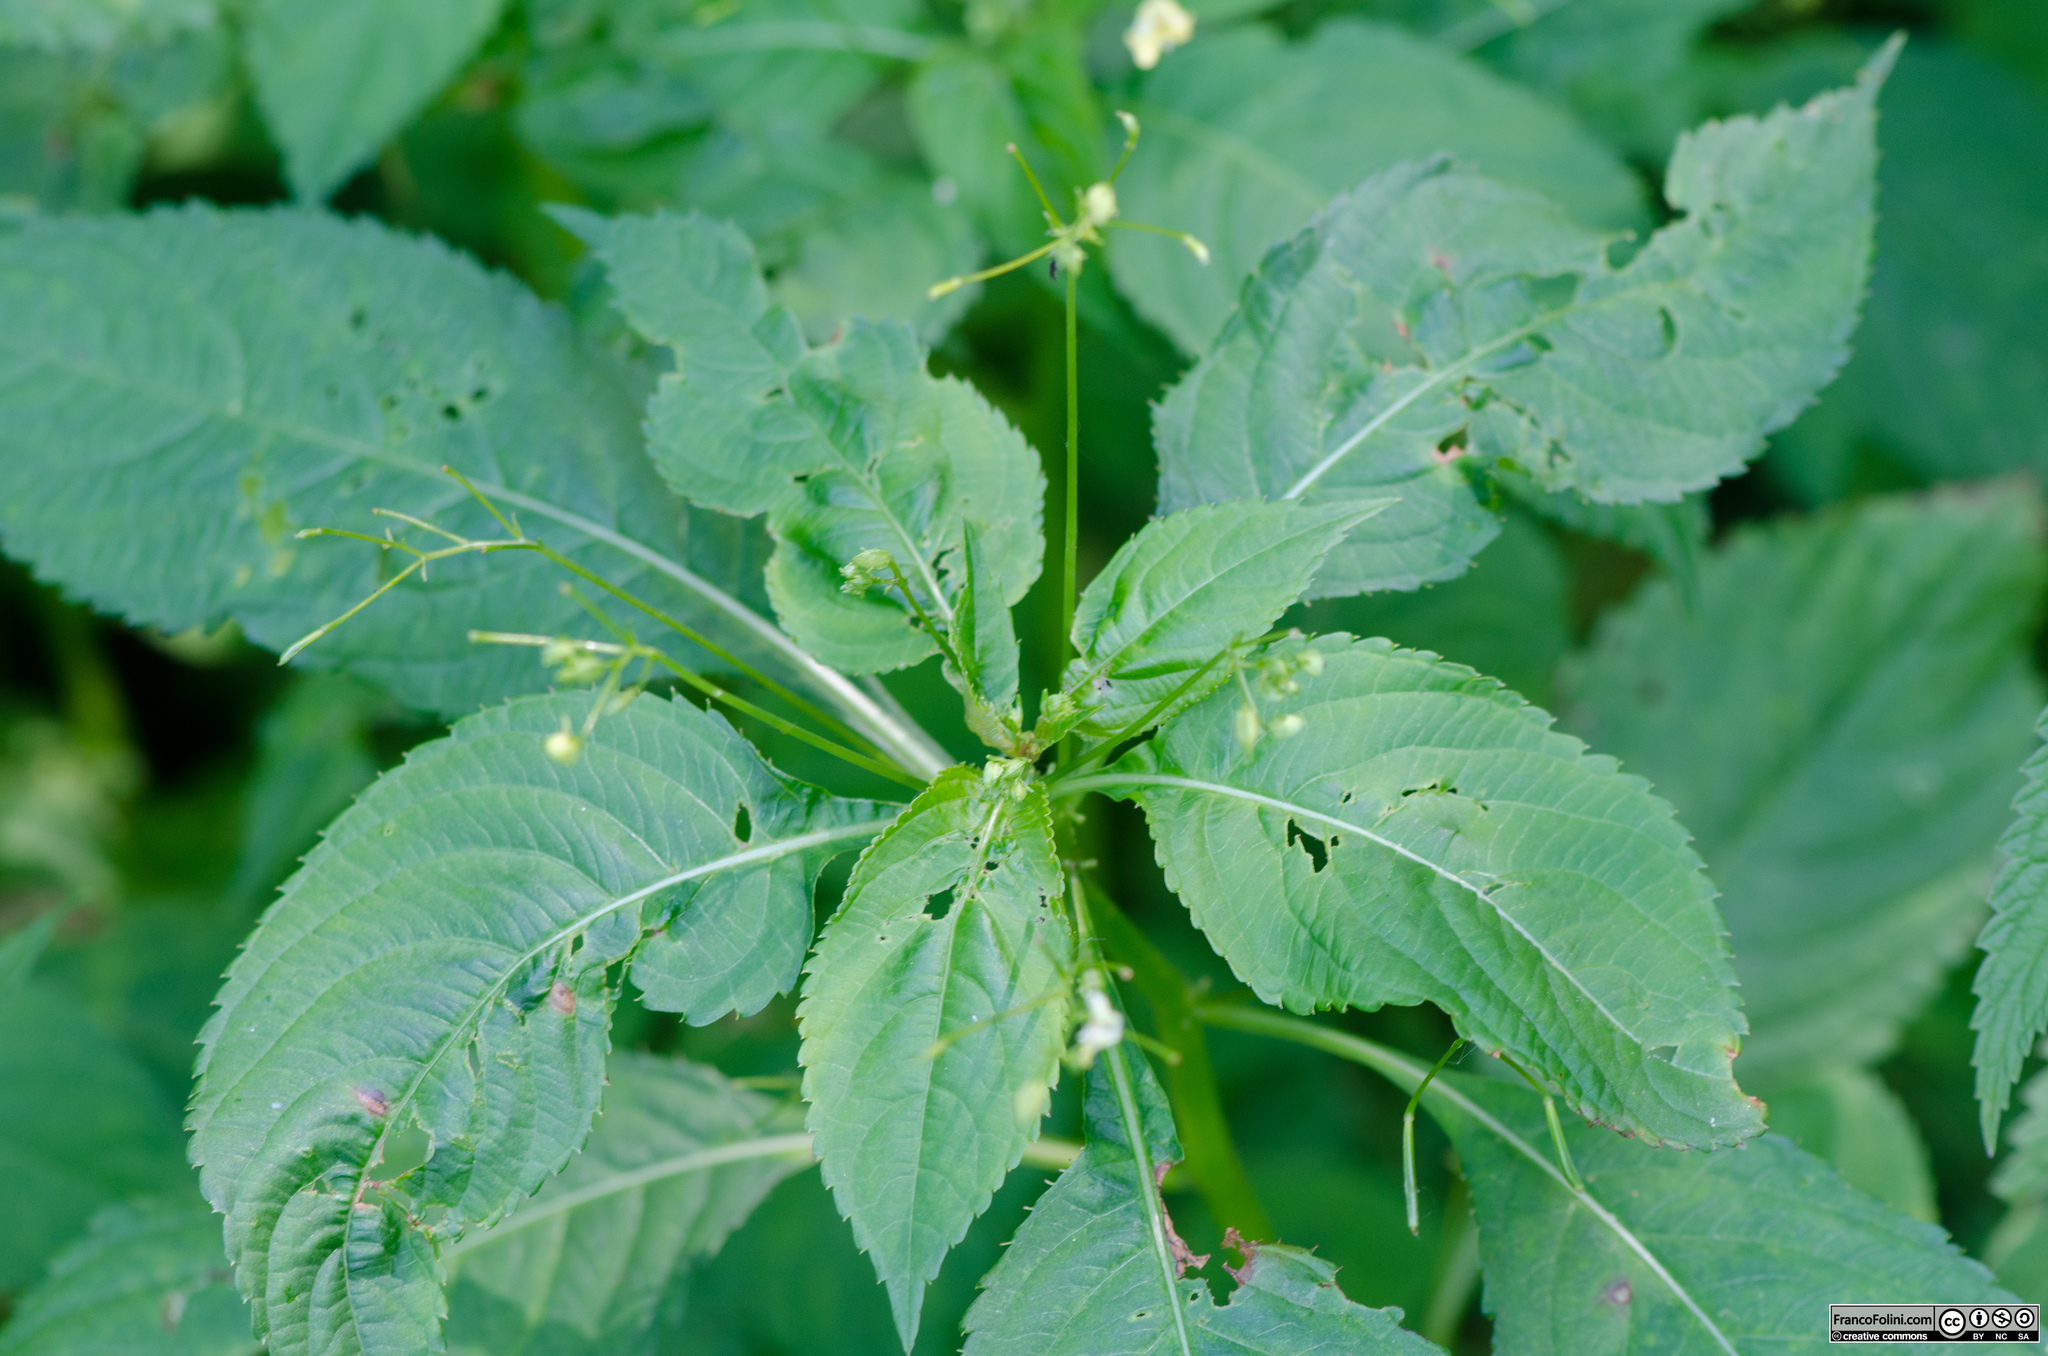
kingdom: Plantae
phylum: Tracheophyta
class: Magnoliopsida
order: Ericales
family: Balsaminaceae
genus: Impatiens
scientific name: Impatiens parviflora
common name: Small balsam
